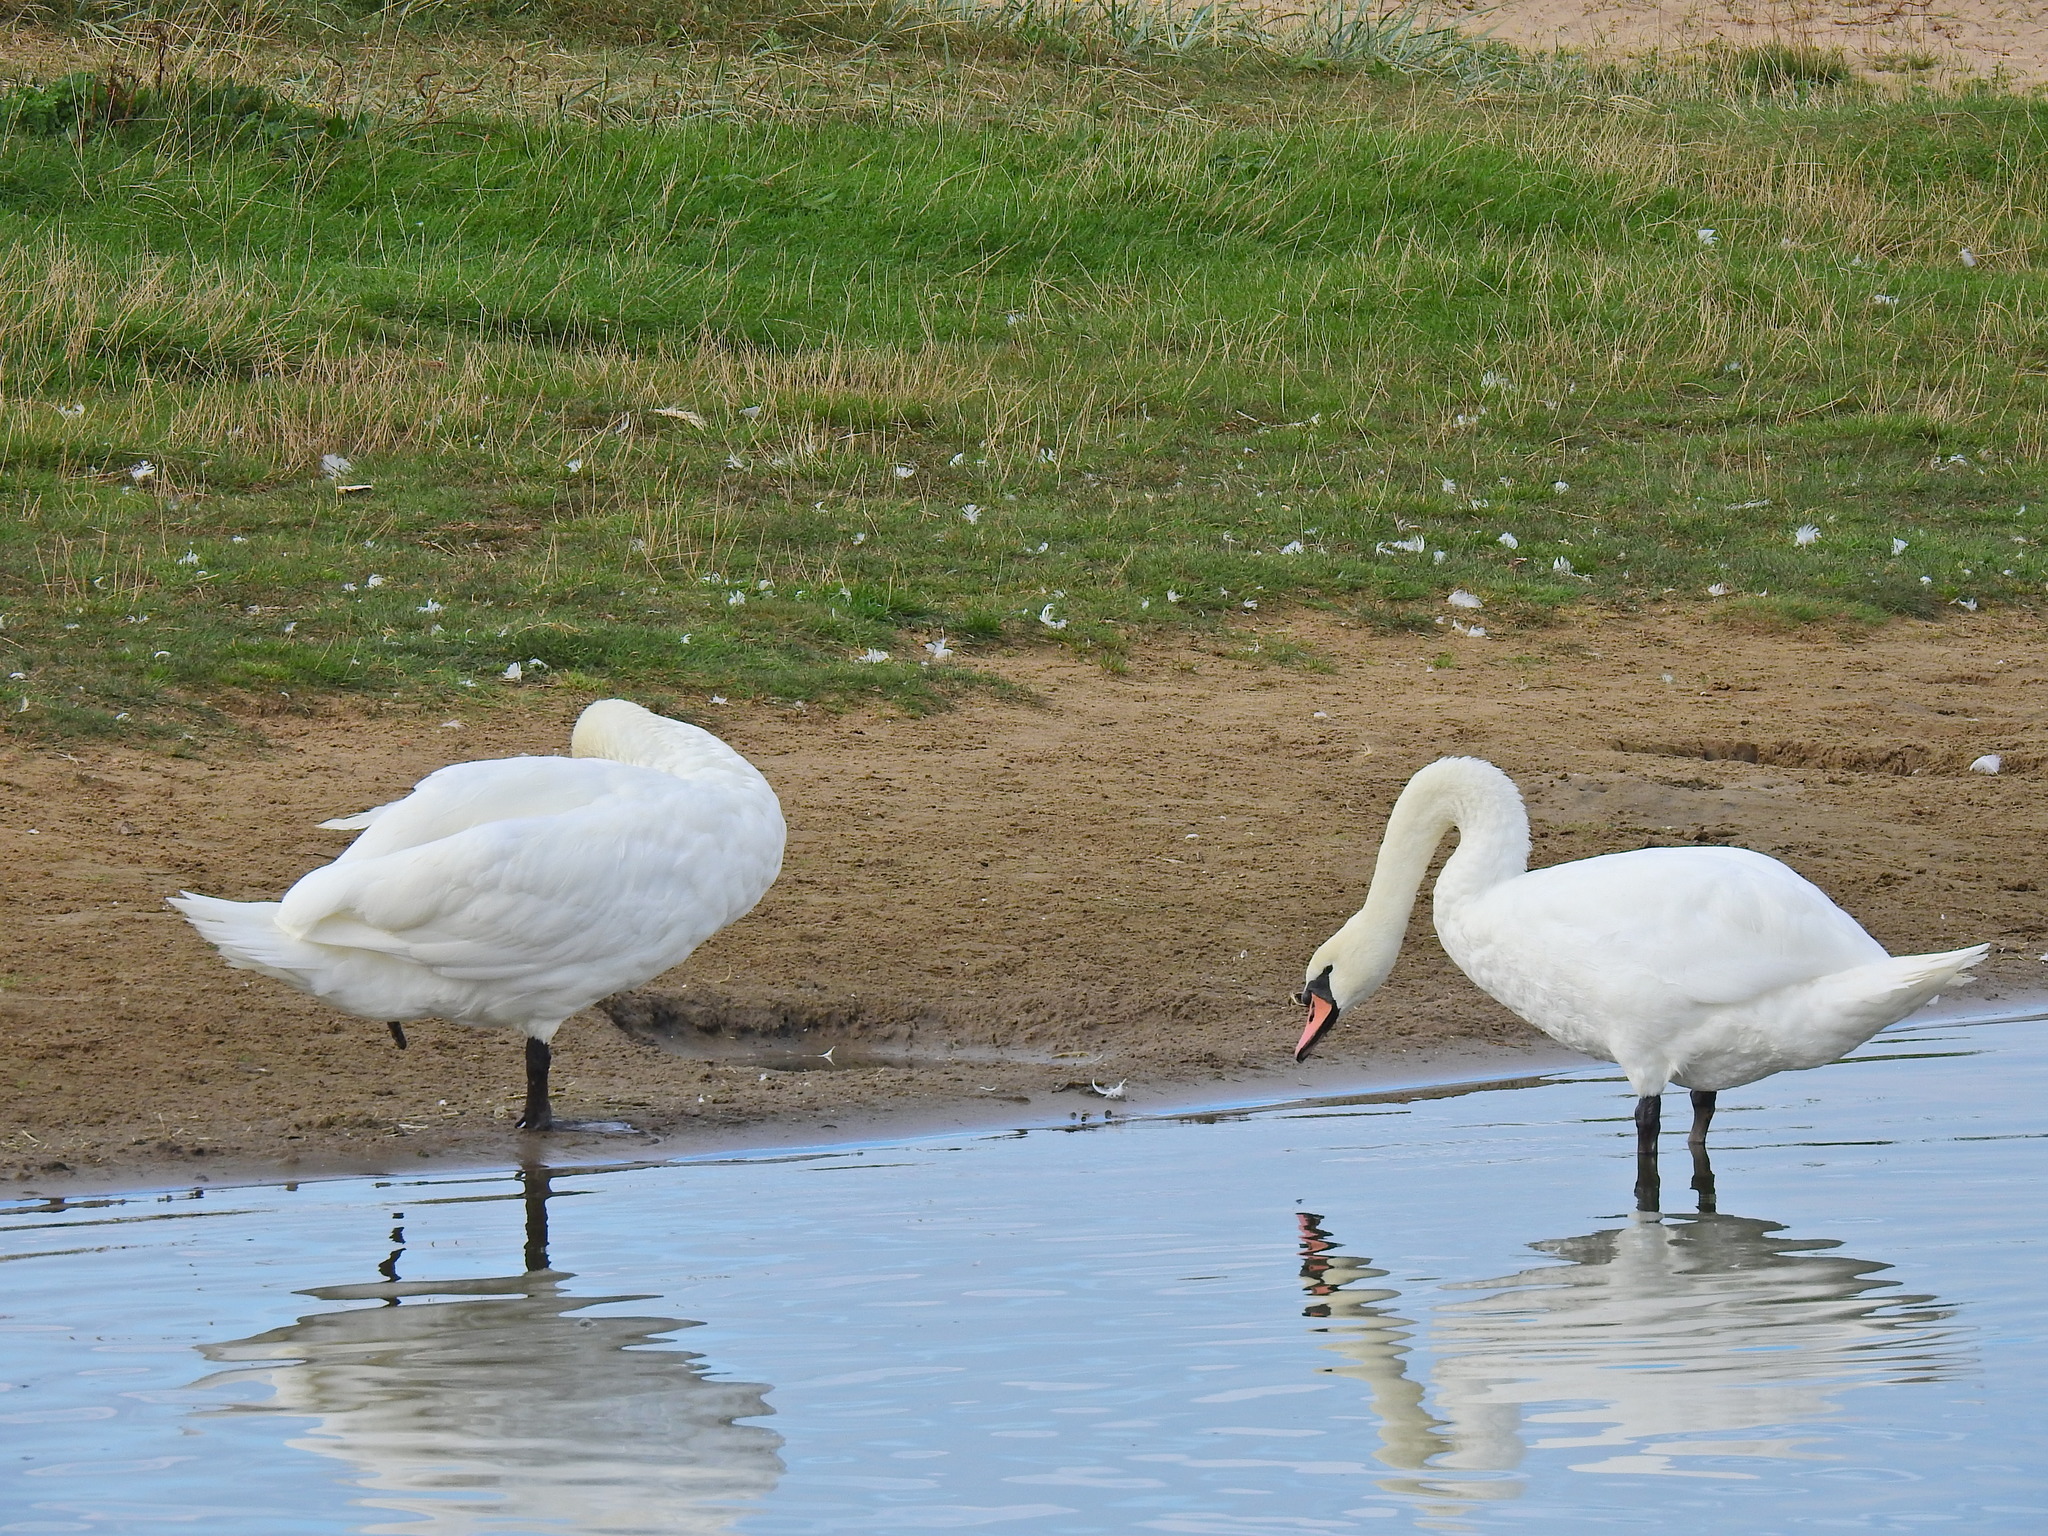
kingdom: Animalia
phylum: Chordata
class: Aves
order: Anseriformes
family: Anatidae
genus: Cygnus
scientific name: Cygnus olor
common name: Mute swan
